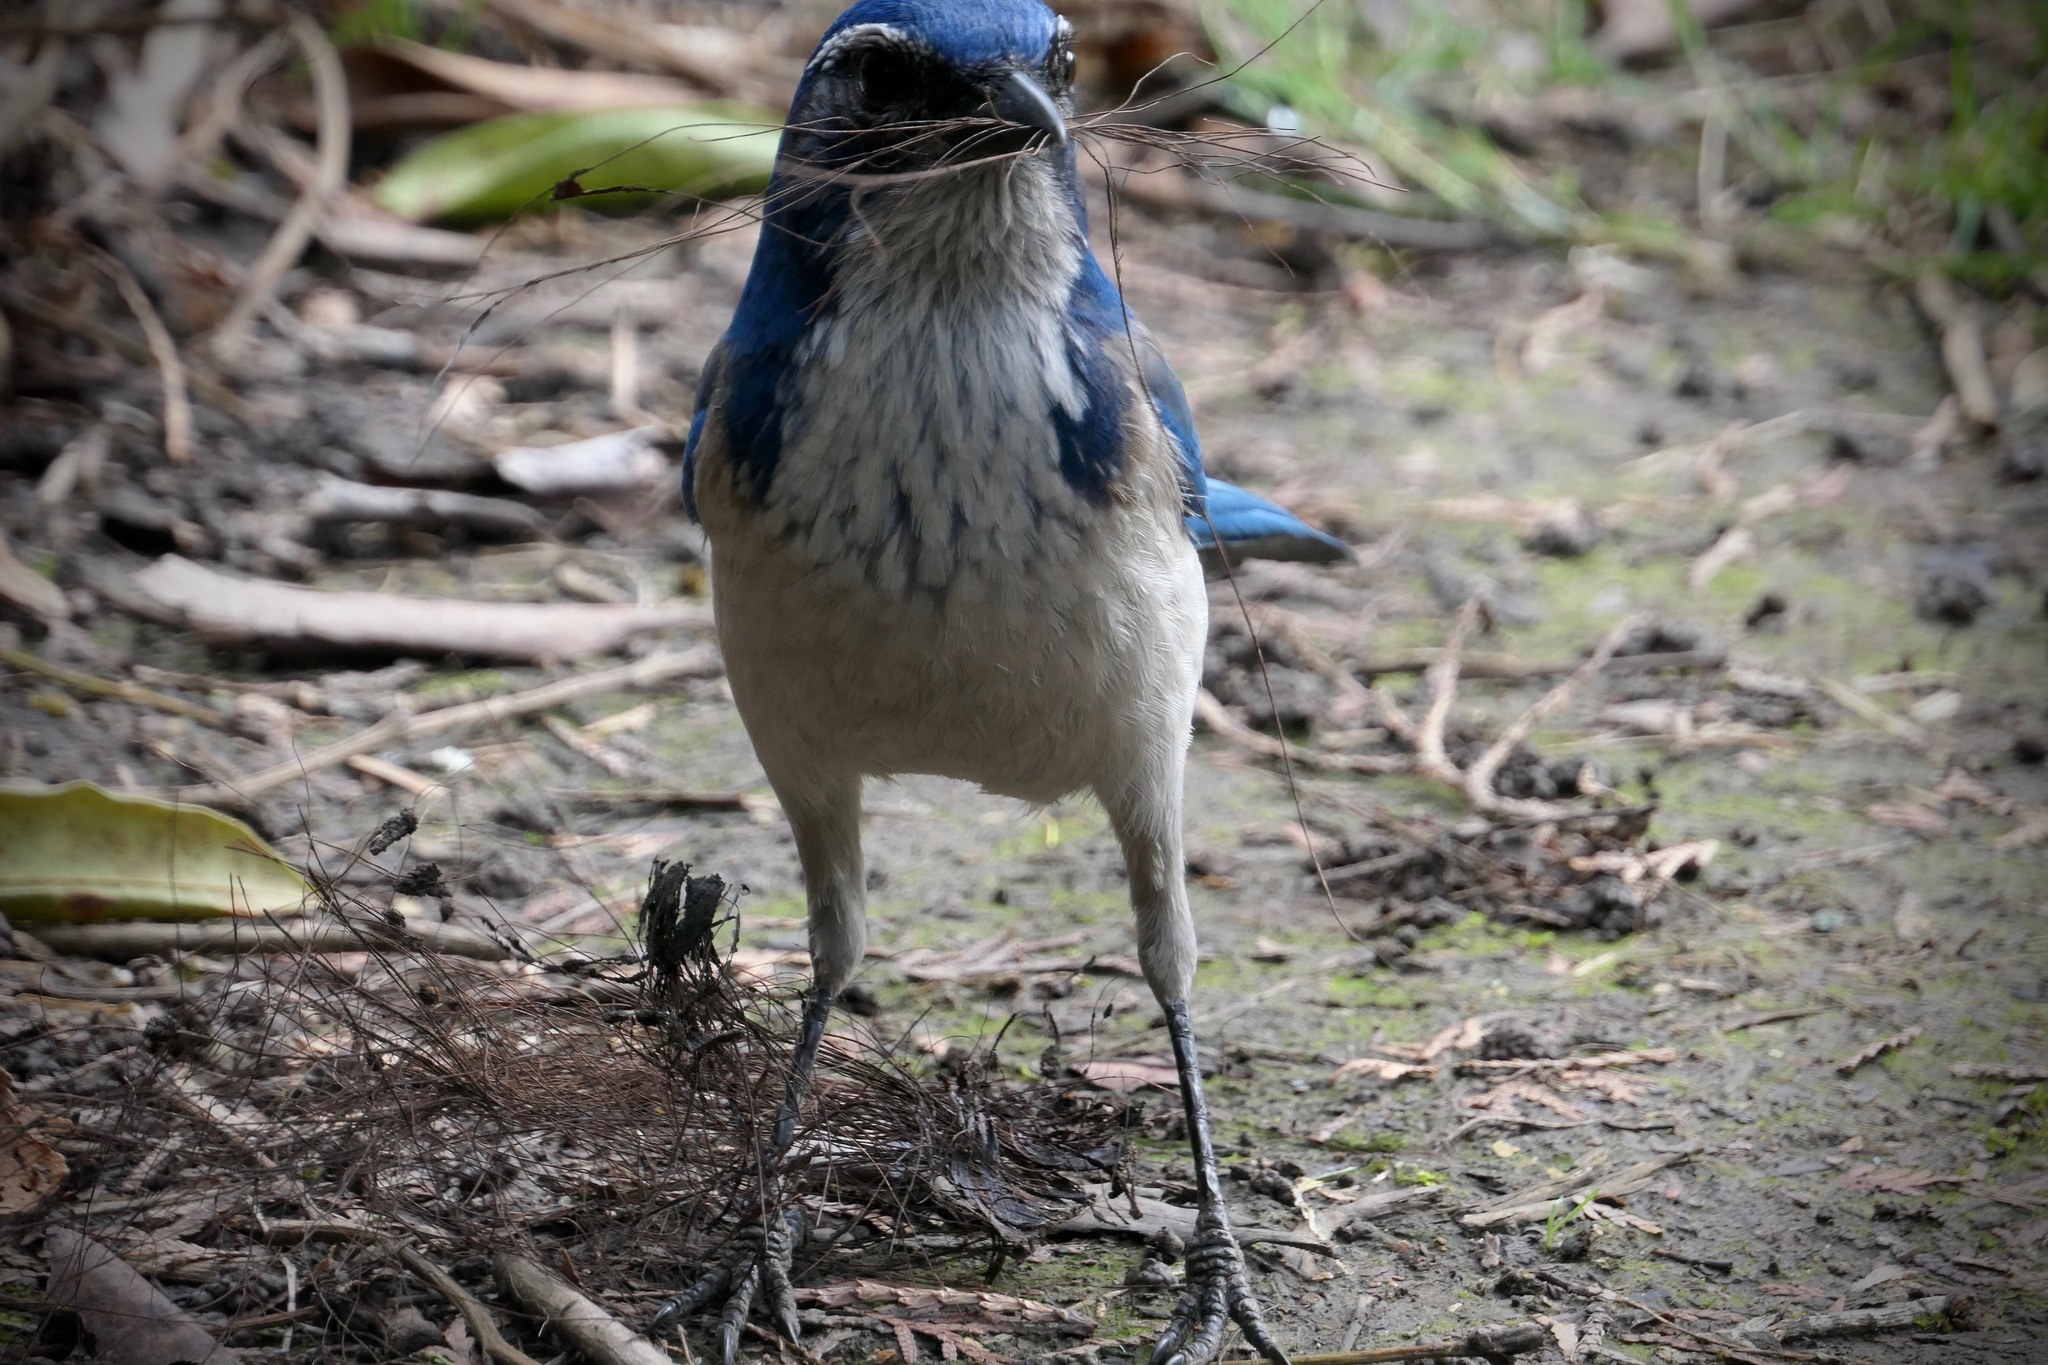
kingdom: Animalia
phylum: Chordata
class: Aves
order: Passeriformes
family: Corvidae
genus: Aphelocoma
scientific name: Aphelocoma californica
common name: California scrub-jay
